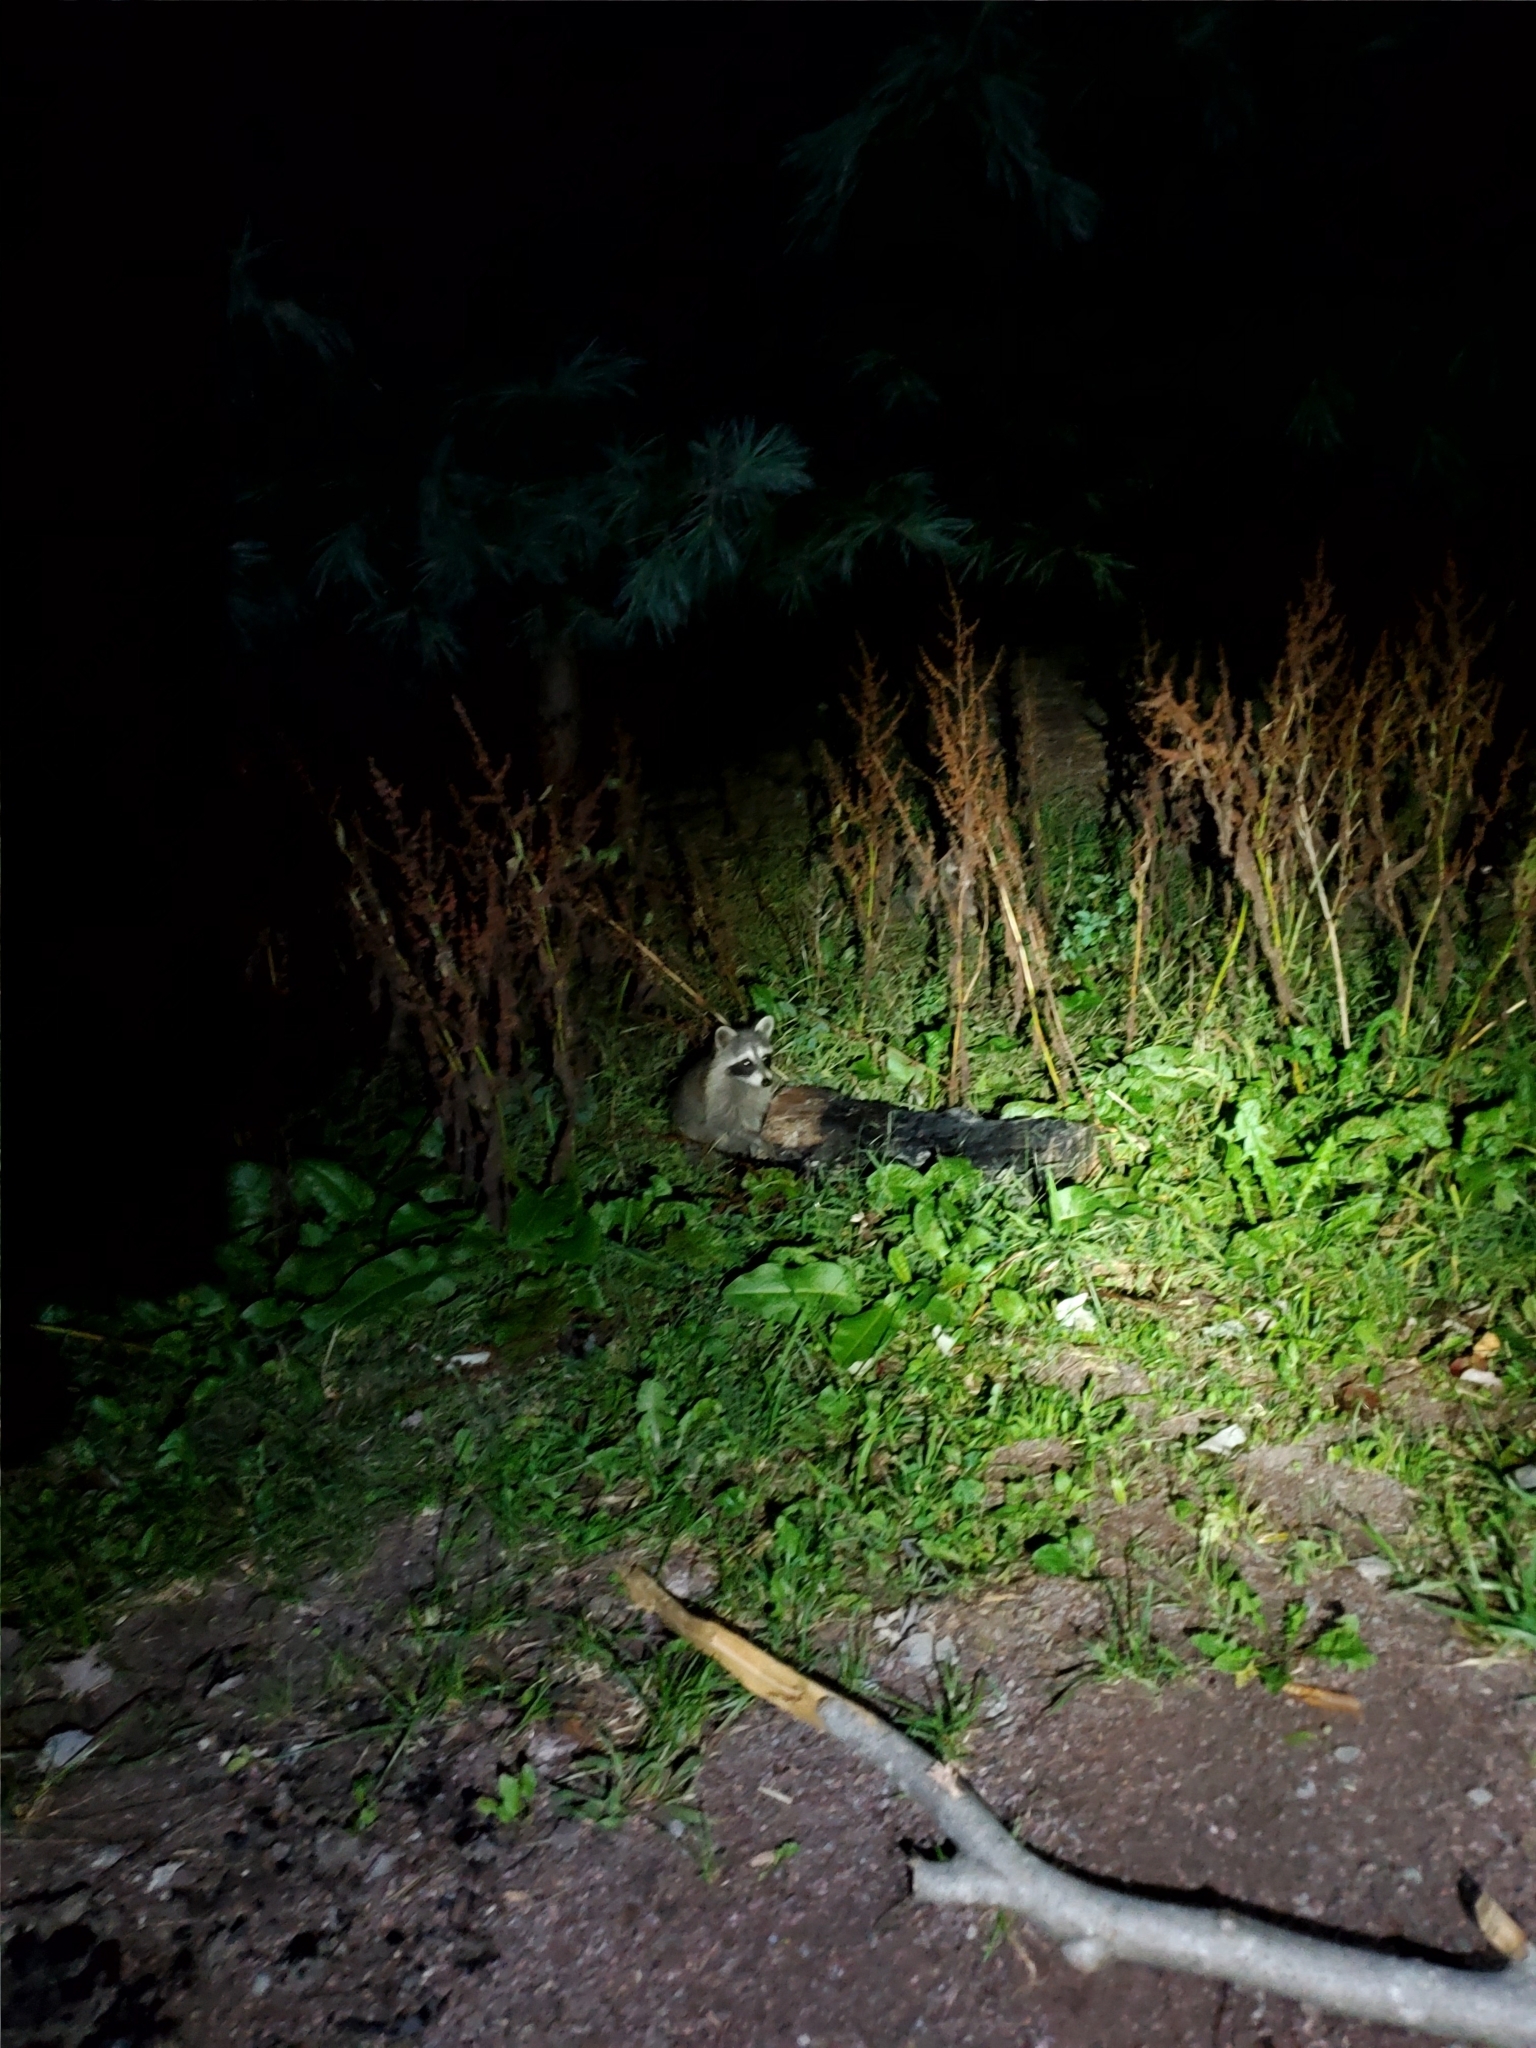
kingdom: Animalia
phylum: Chordata
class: Mammalia
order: Carnivora
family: Procyonidae
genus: Procyon
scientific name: Procyon lotor
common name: Raccoon
